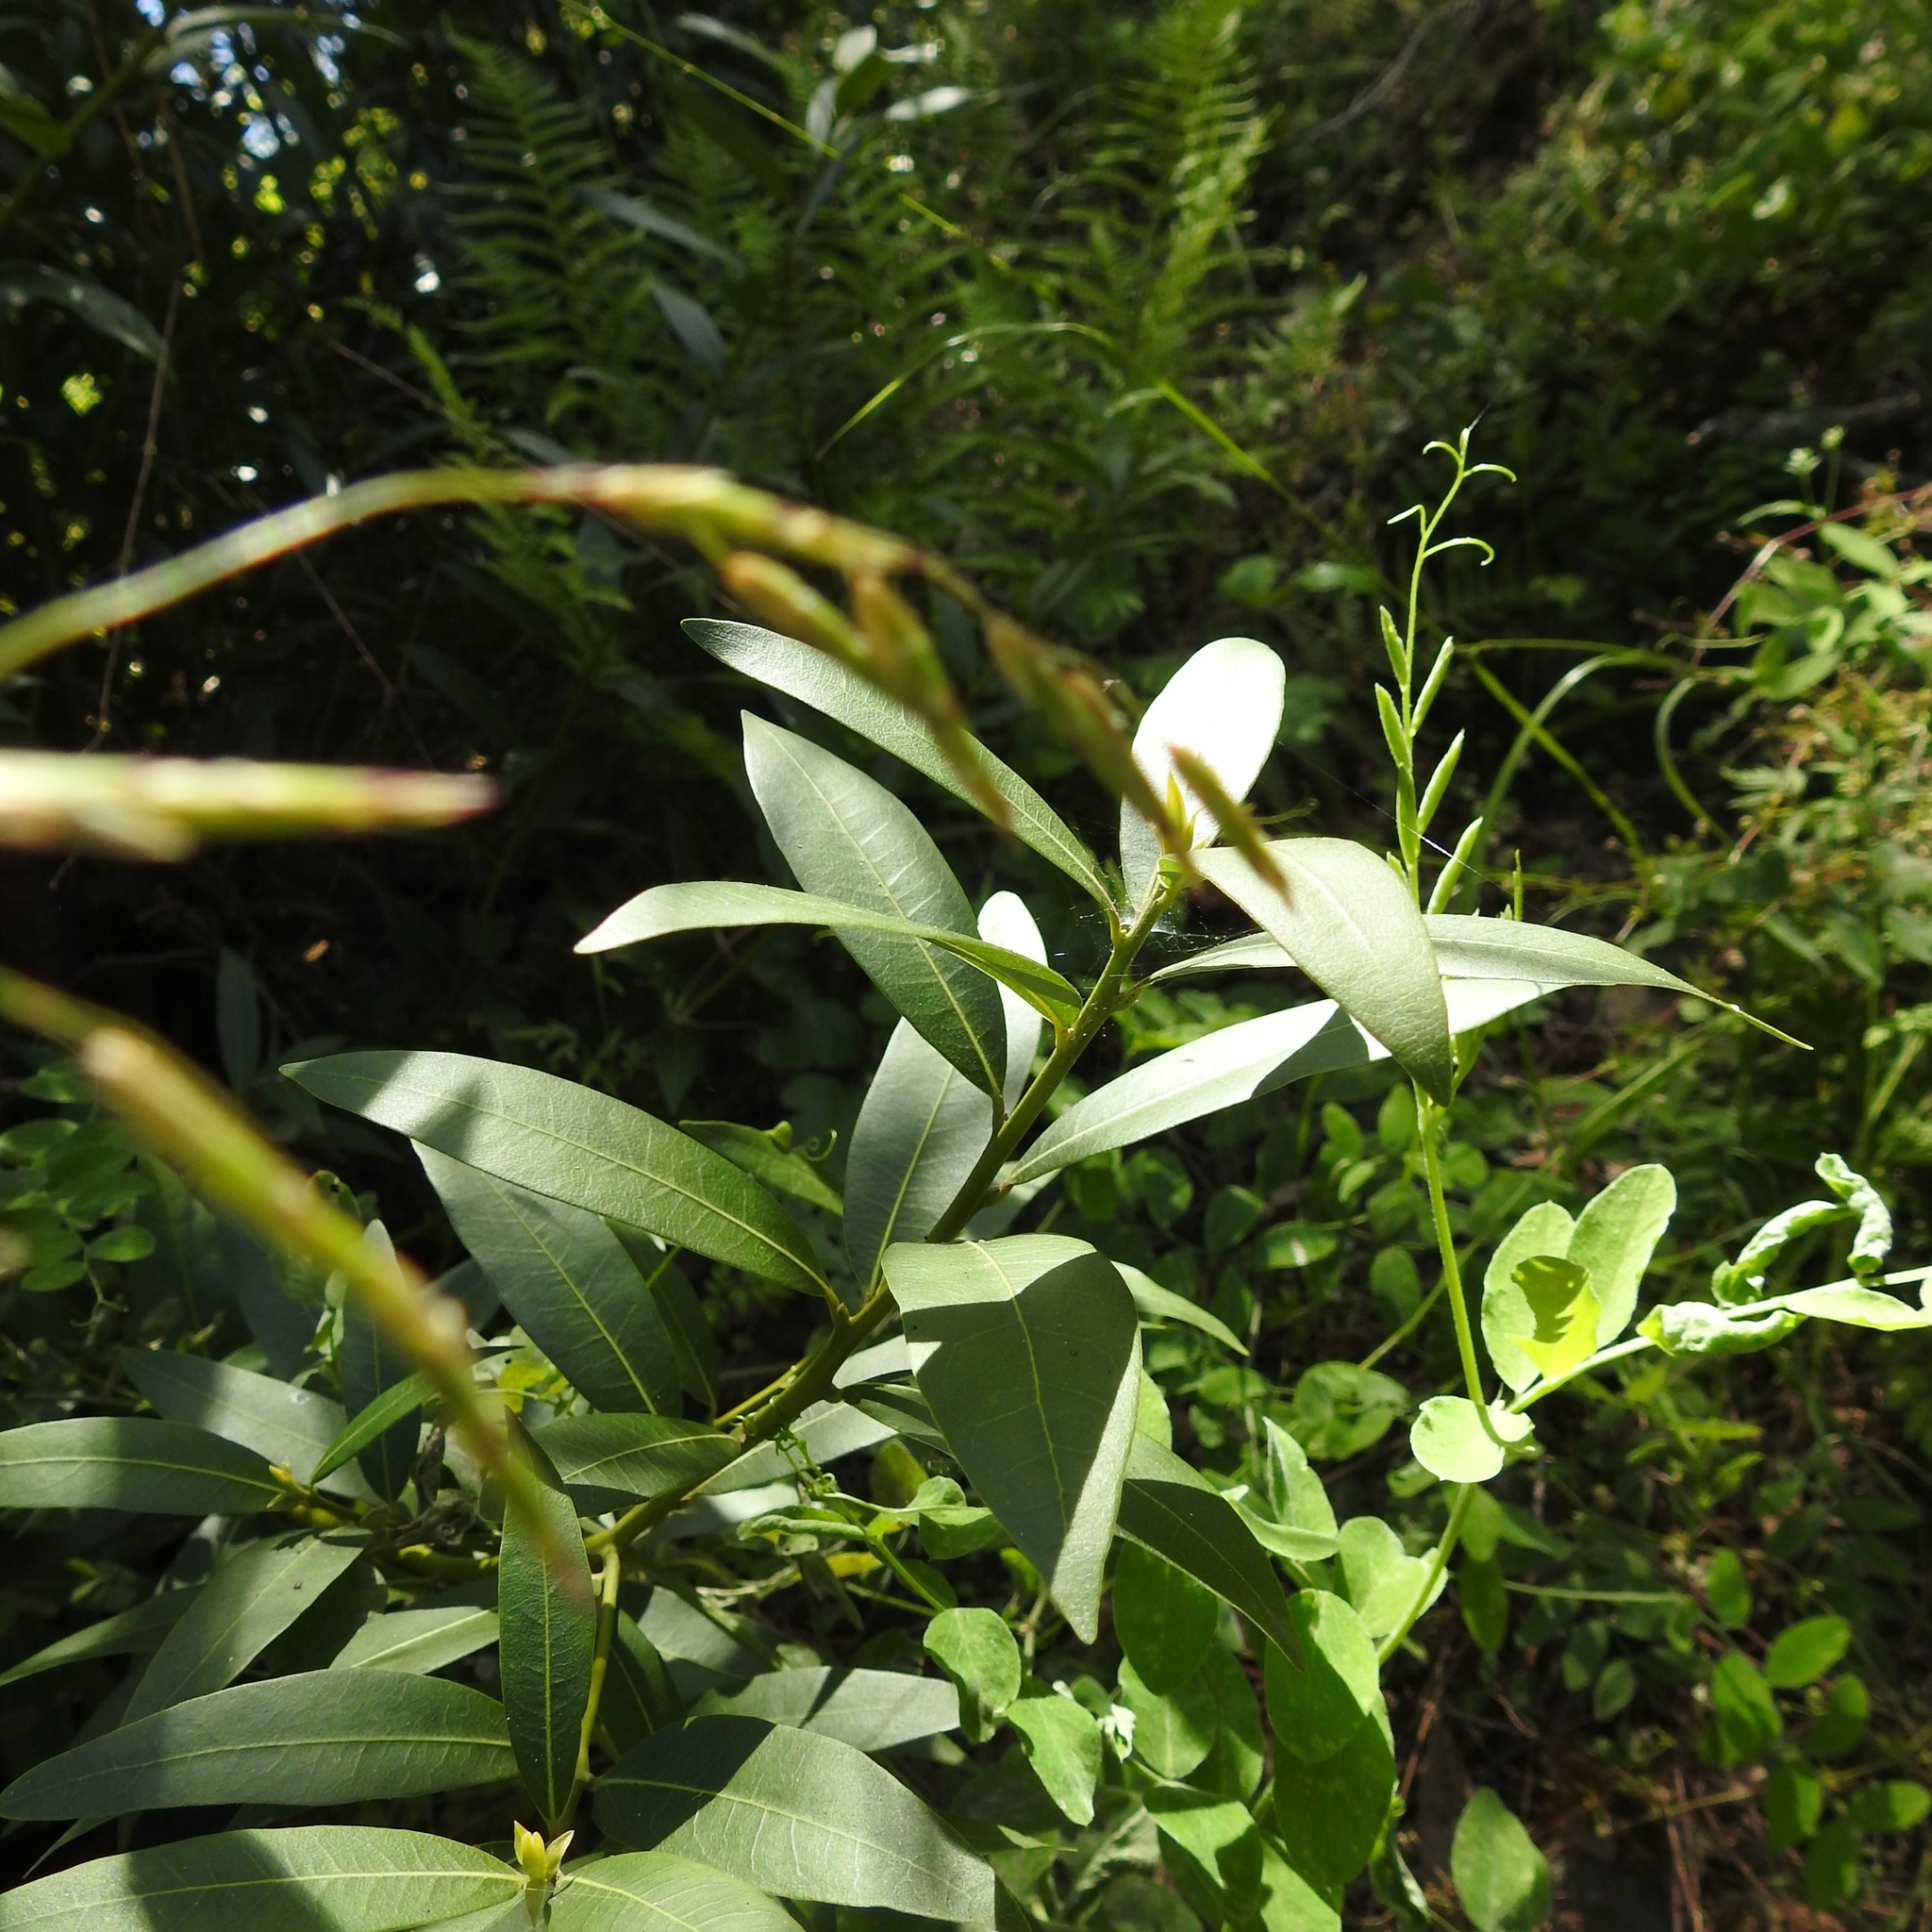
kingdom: Plantae
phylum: Tracheophyta
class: Magnoliopsida
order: Laurales
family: Lauraceae
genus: Umbellularia
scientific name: Umbellularia californica
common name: California bay
